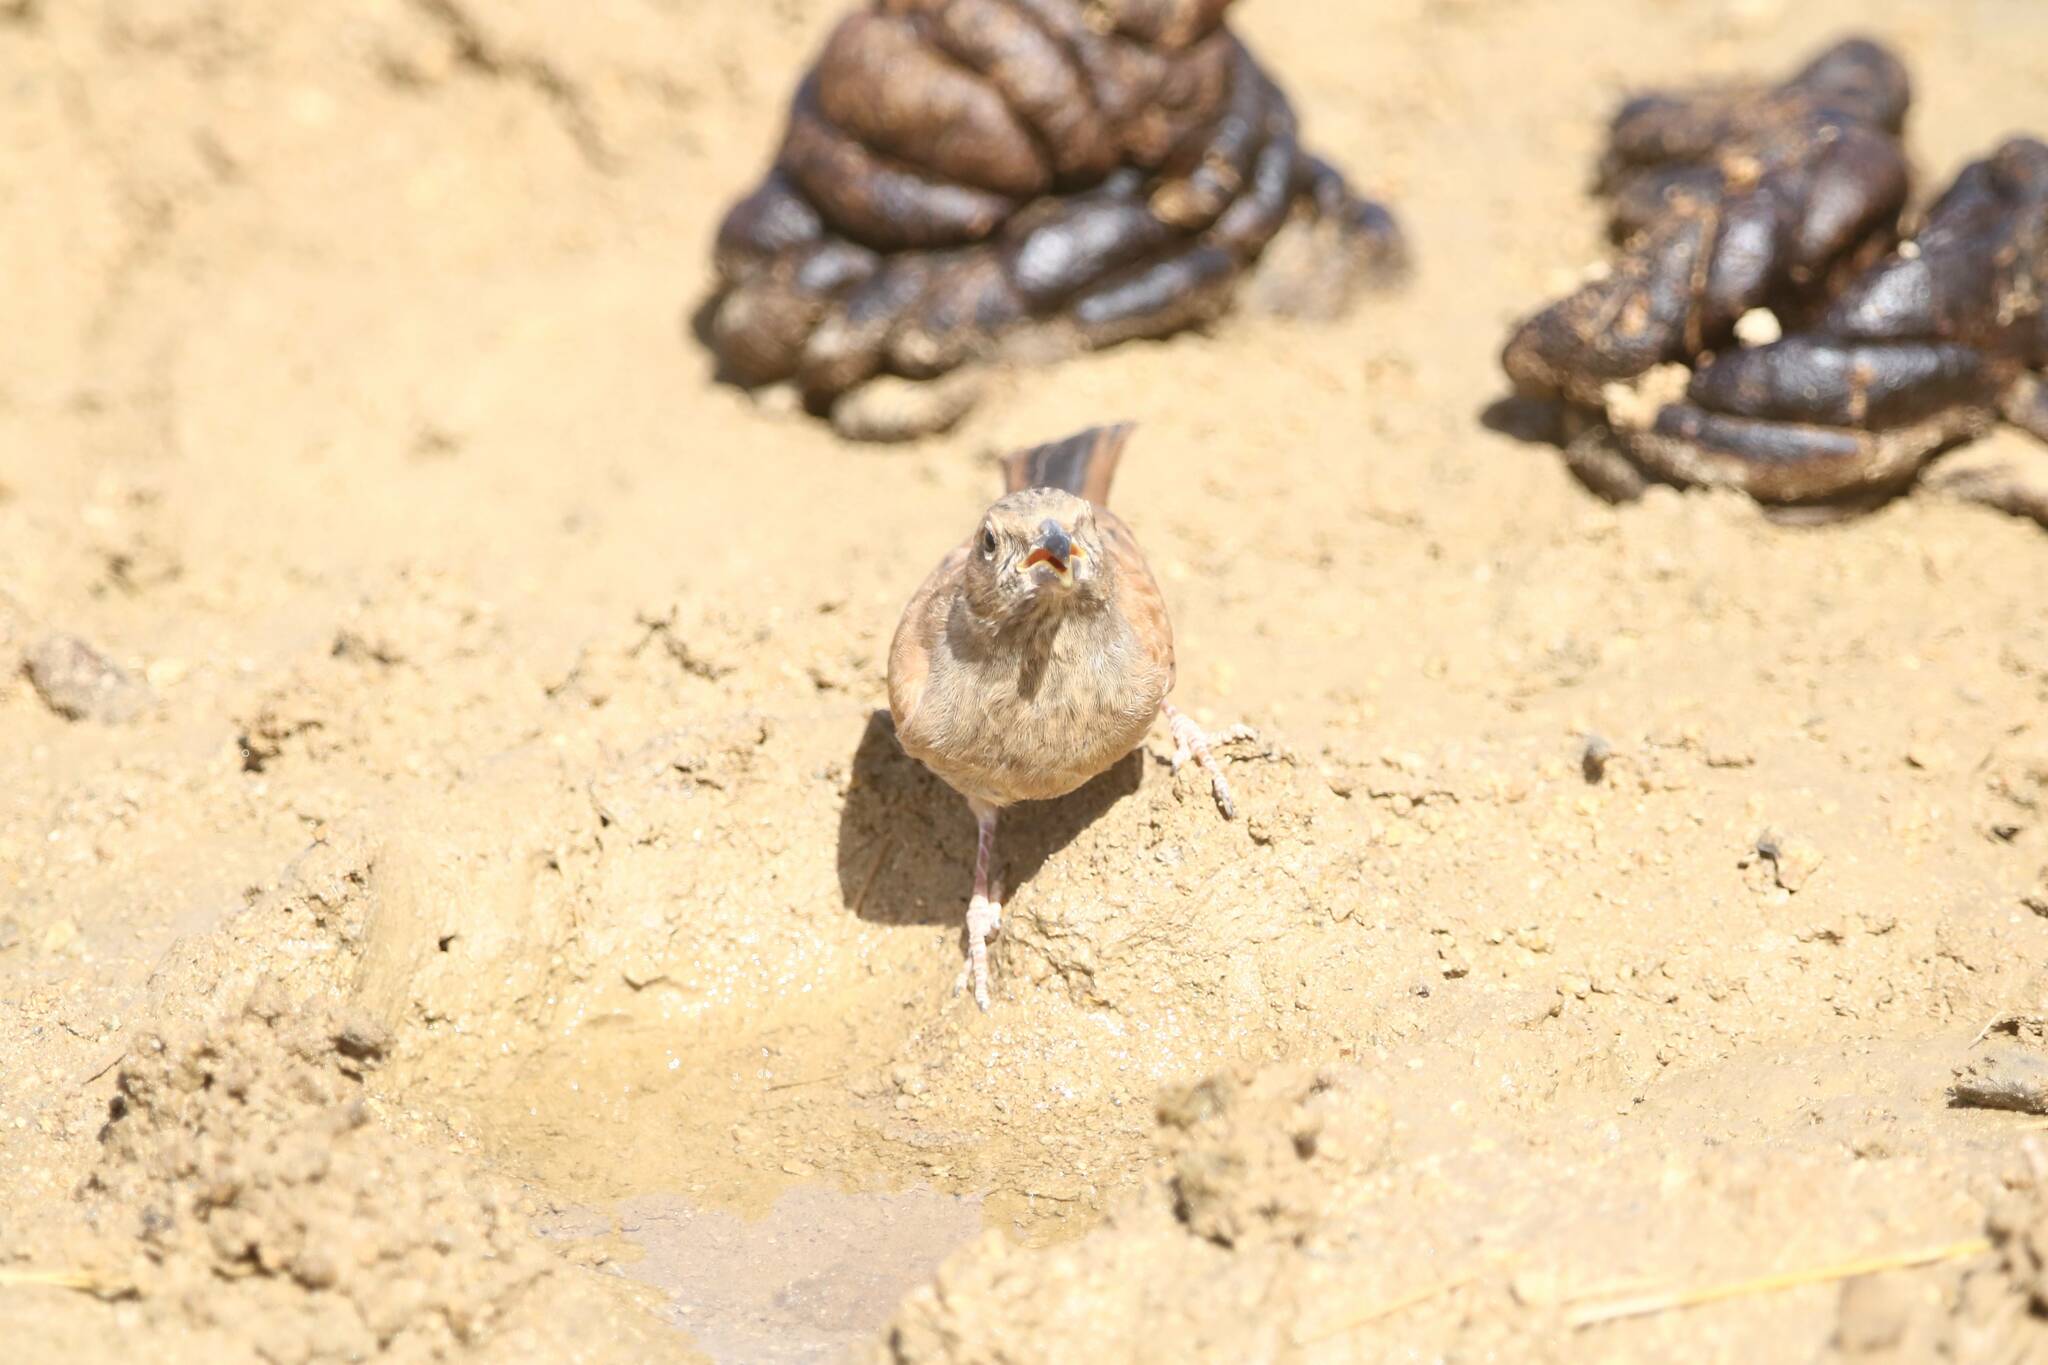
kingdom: Animalia
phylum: Chordata
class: Aves
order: Passeriformes
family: Emberizidae
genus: Emberiza
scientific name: Emberiza sahari
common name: House bunting
